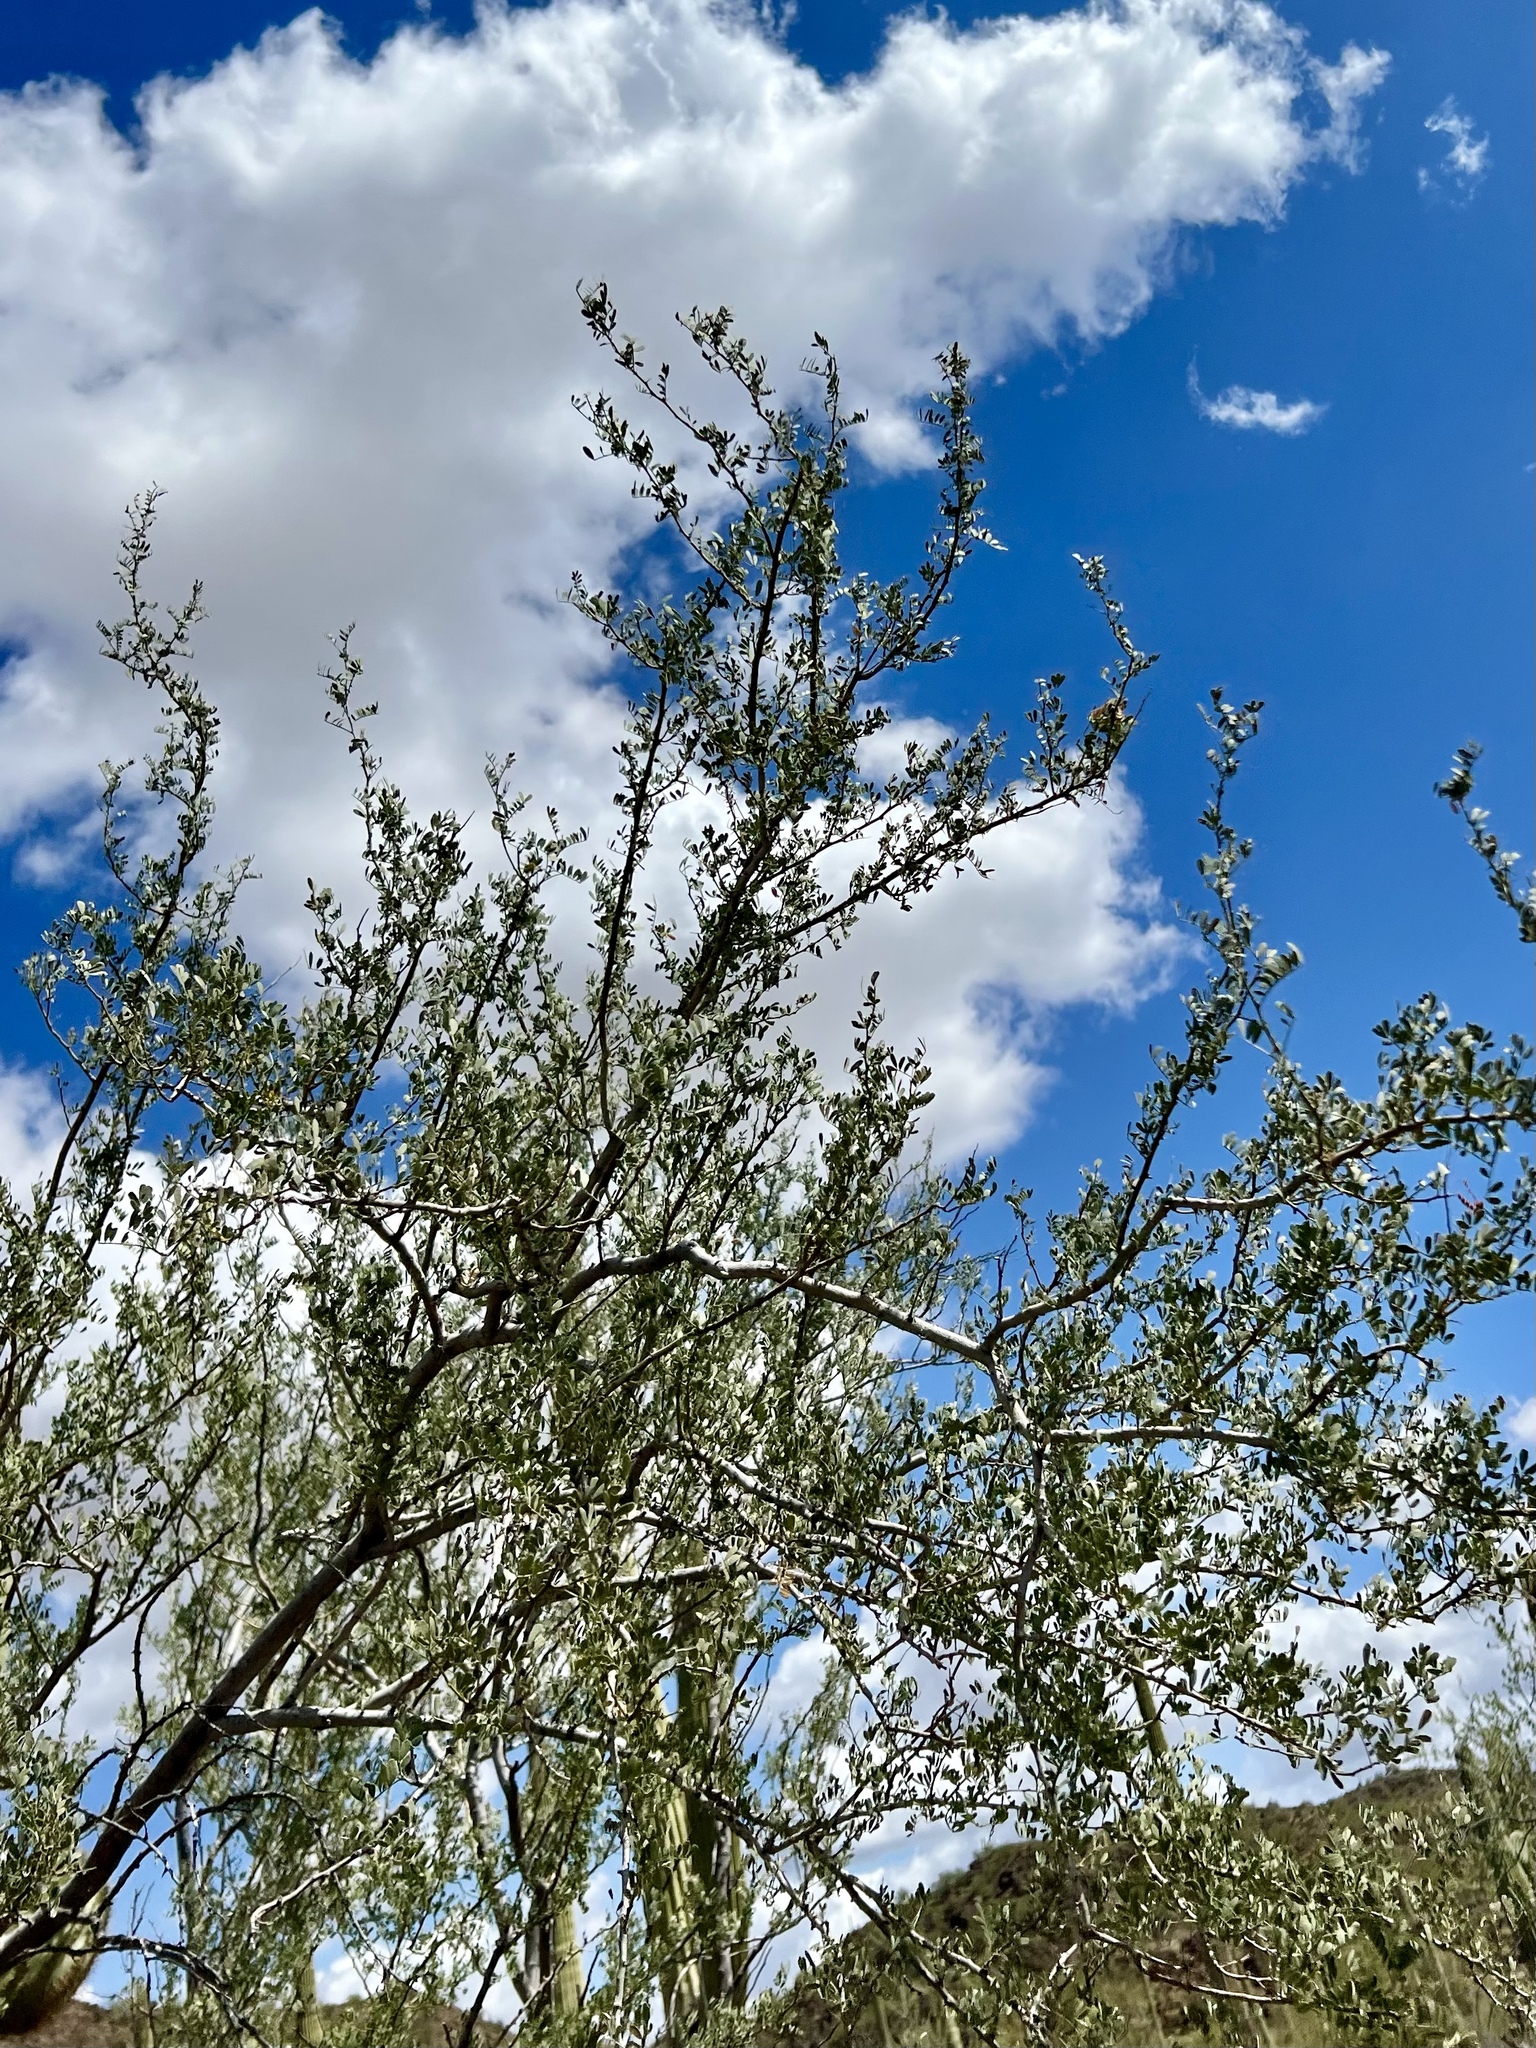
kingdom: Plantae
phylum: Tracheophyta
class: Magnoliopsida
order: Fabales
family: Fabaceae
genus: Olneya
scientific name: Olneya tesota
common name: Desert ironwood
